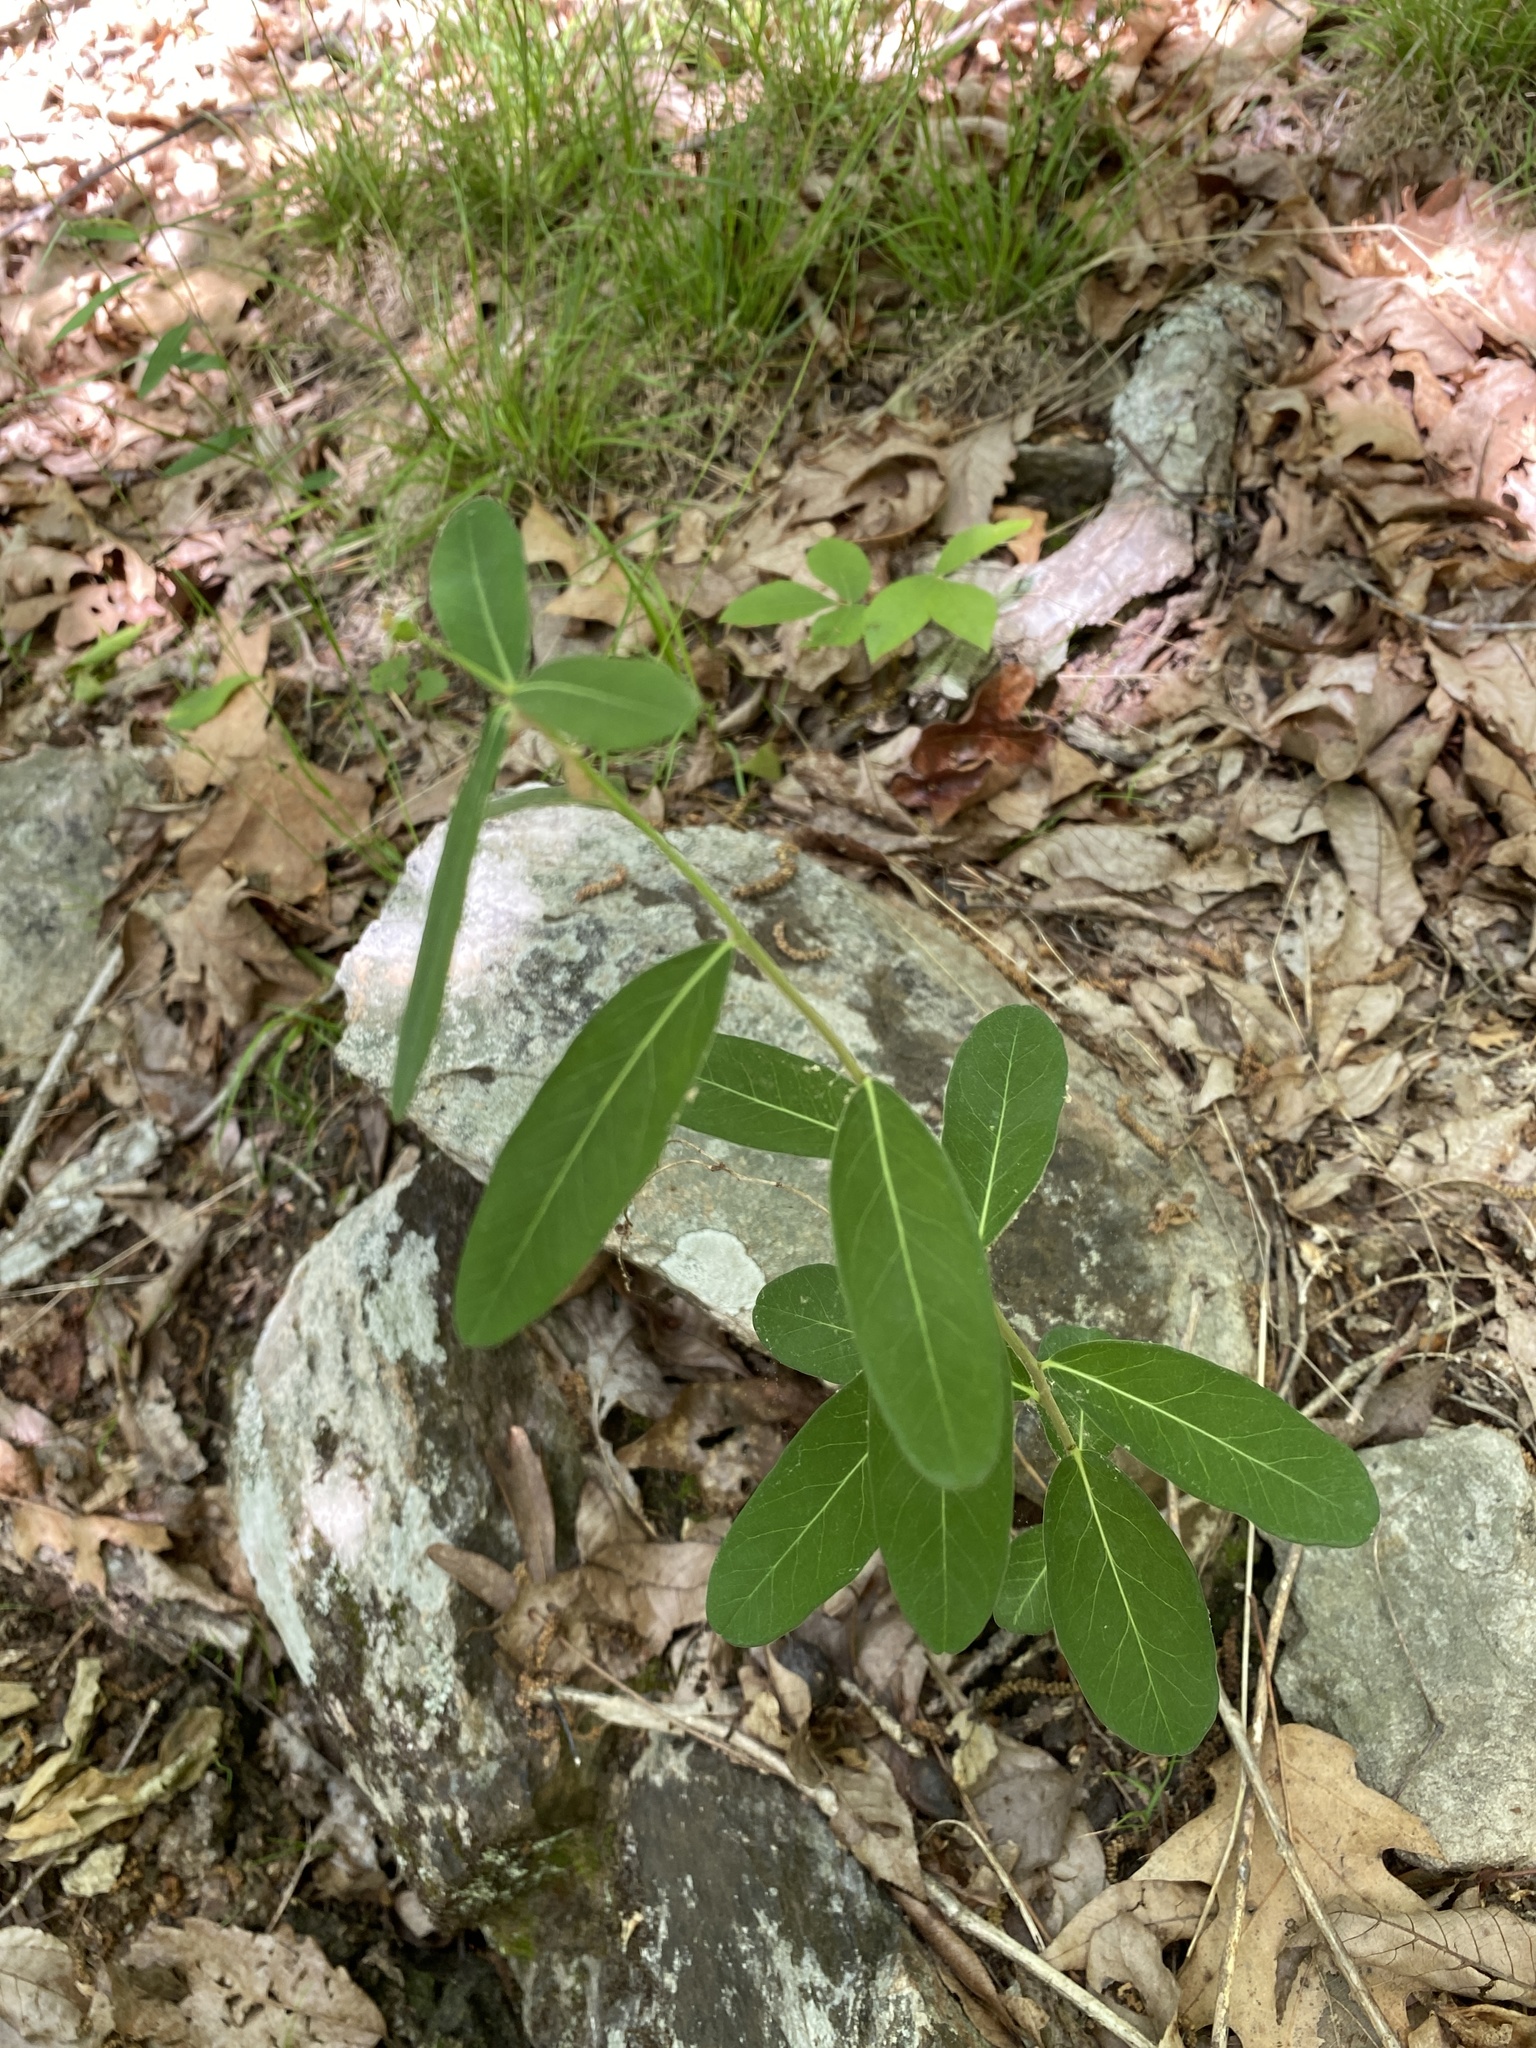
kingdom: Plantae
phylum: Tracheophyta
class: Magnoliopsida
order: Malpighiales
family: Euphorbiaceae
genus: Euphorbia
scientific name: Euphorbia corollata
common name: Flowering spurge
